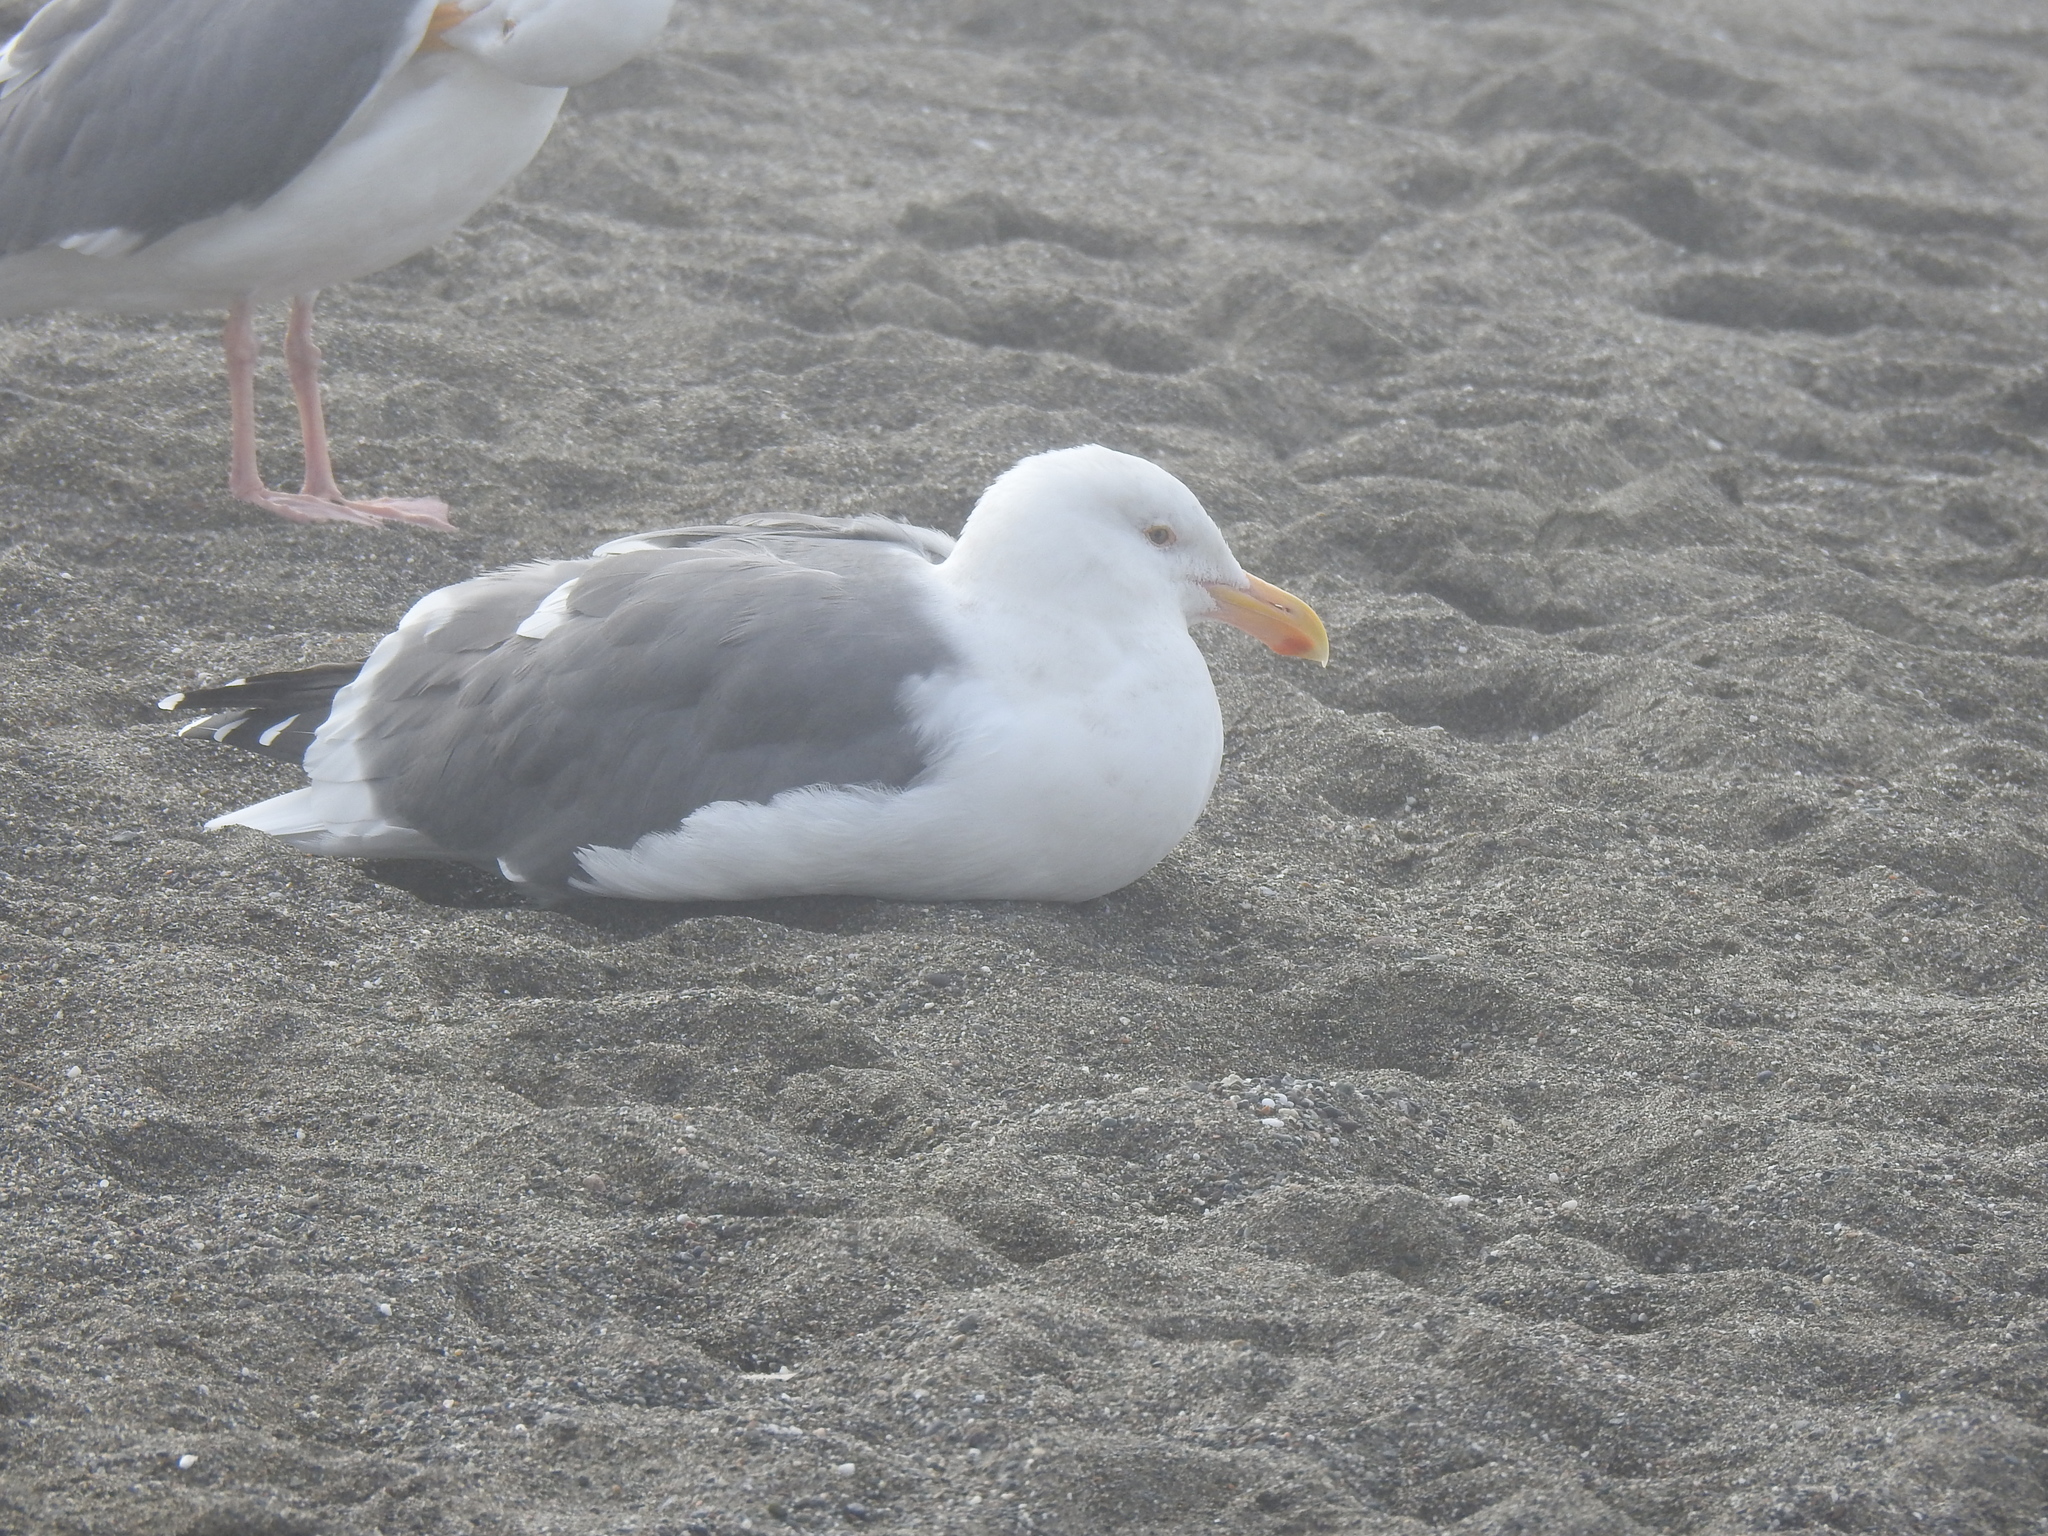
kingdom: Animalia
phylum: Chordata
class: Aves
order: Charadriiformes
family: Laridae
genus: Larus
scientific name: Larus occidentalis
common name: Western gull
